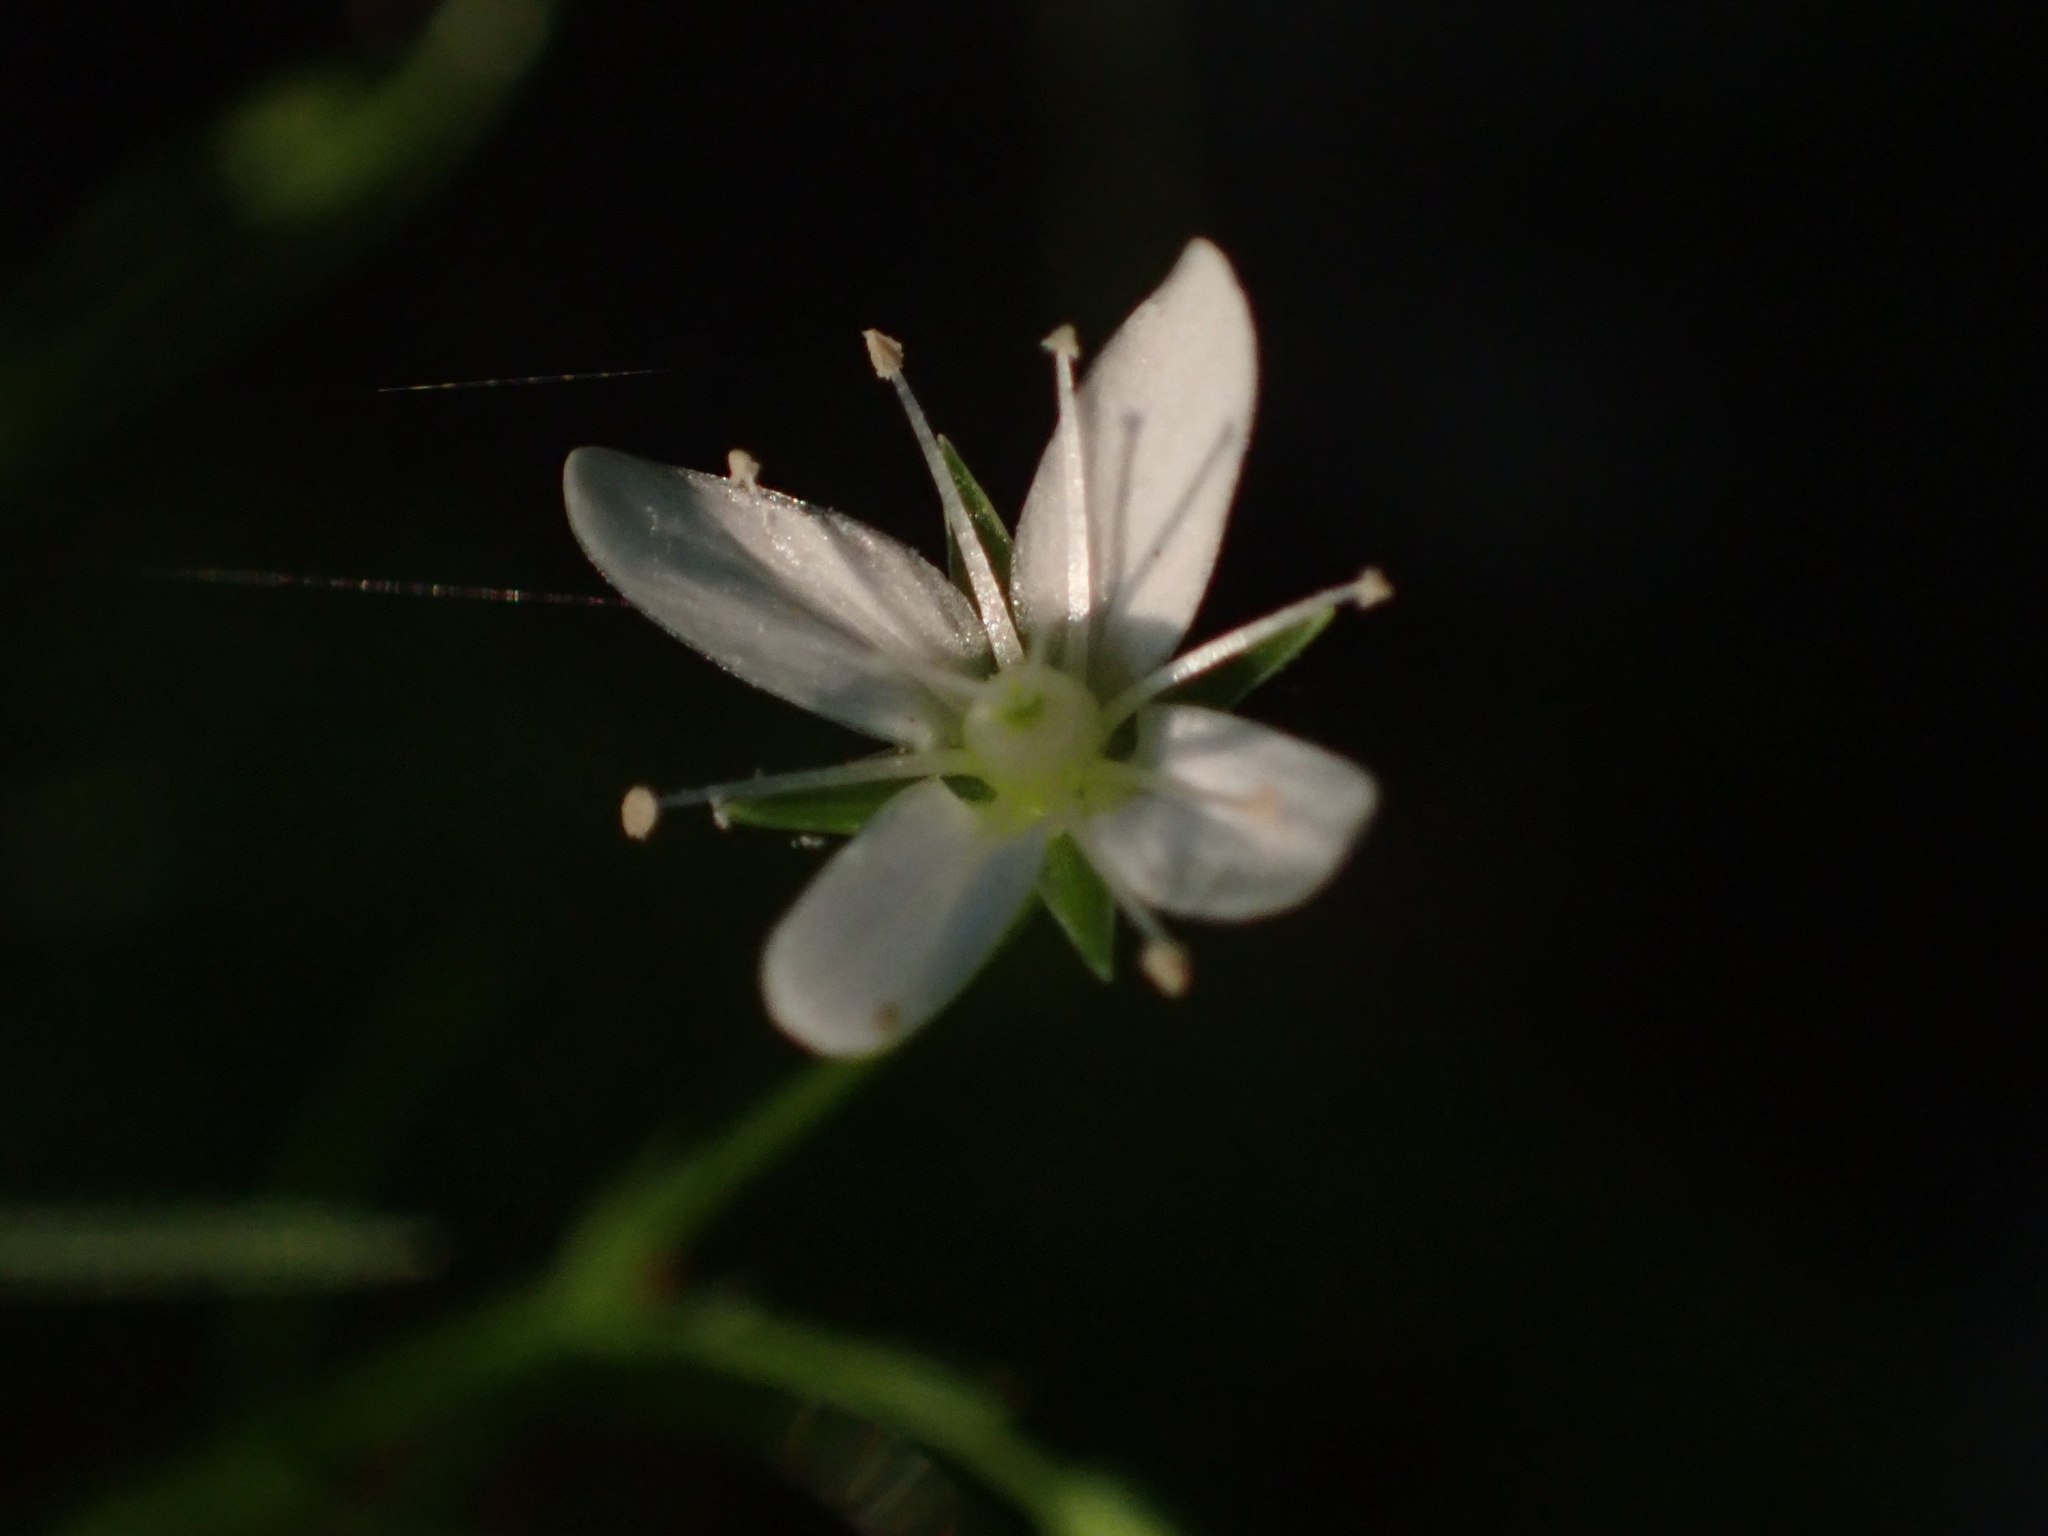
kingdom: Plantae
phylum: Tracheophyta
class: Magnoliopsida
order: Caryophyllales
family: Caryophyllaceae
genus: Moehringia
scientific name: Moehringia muscosa
